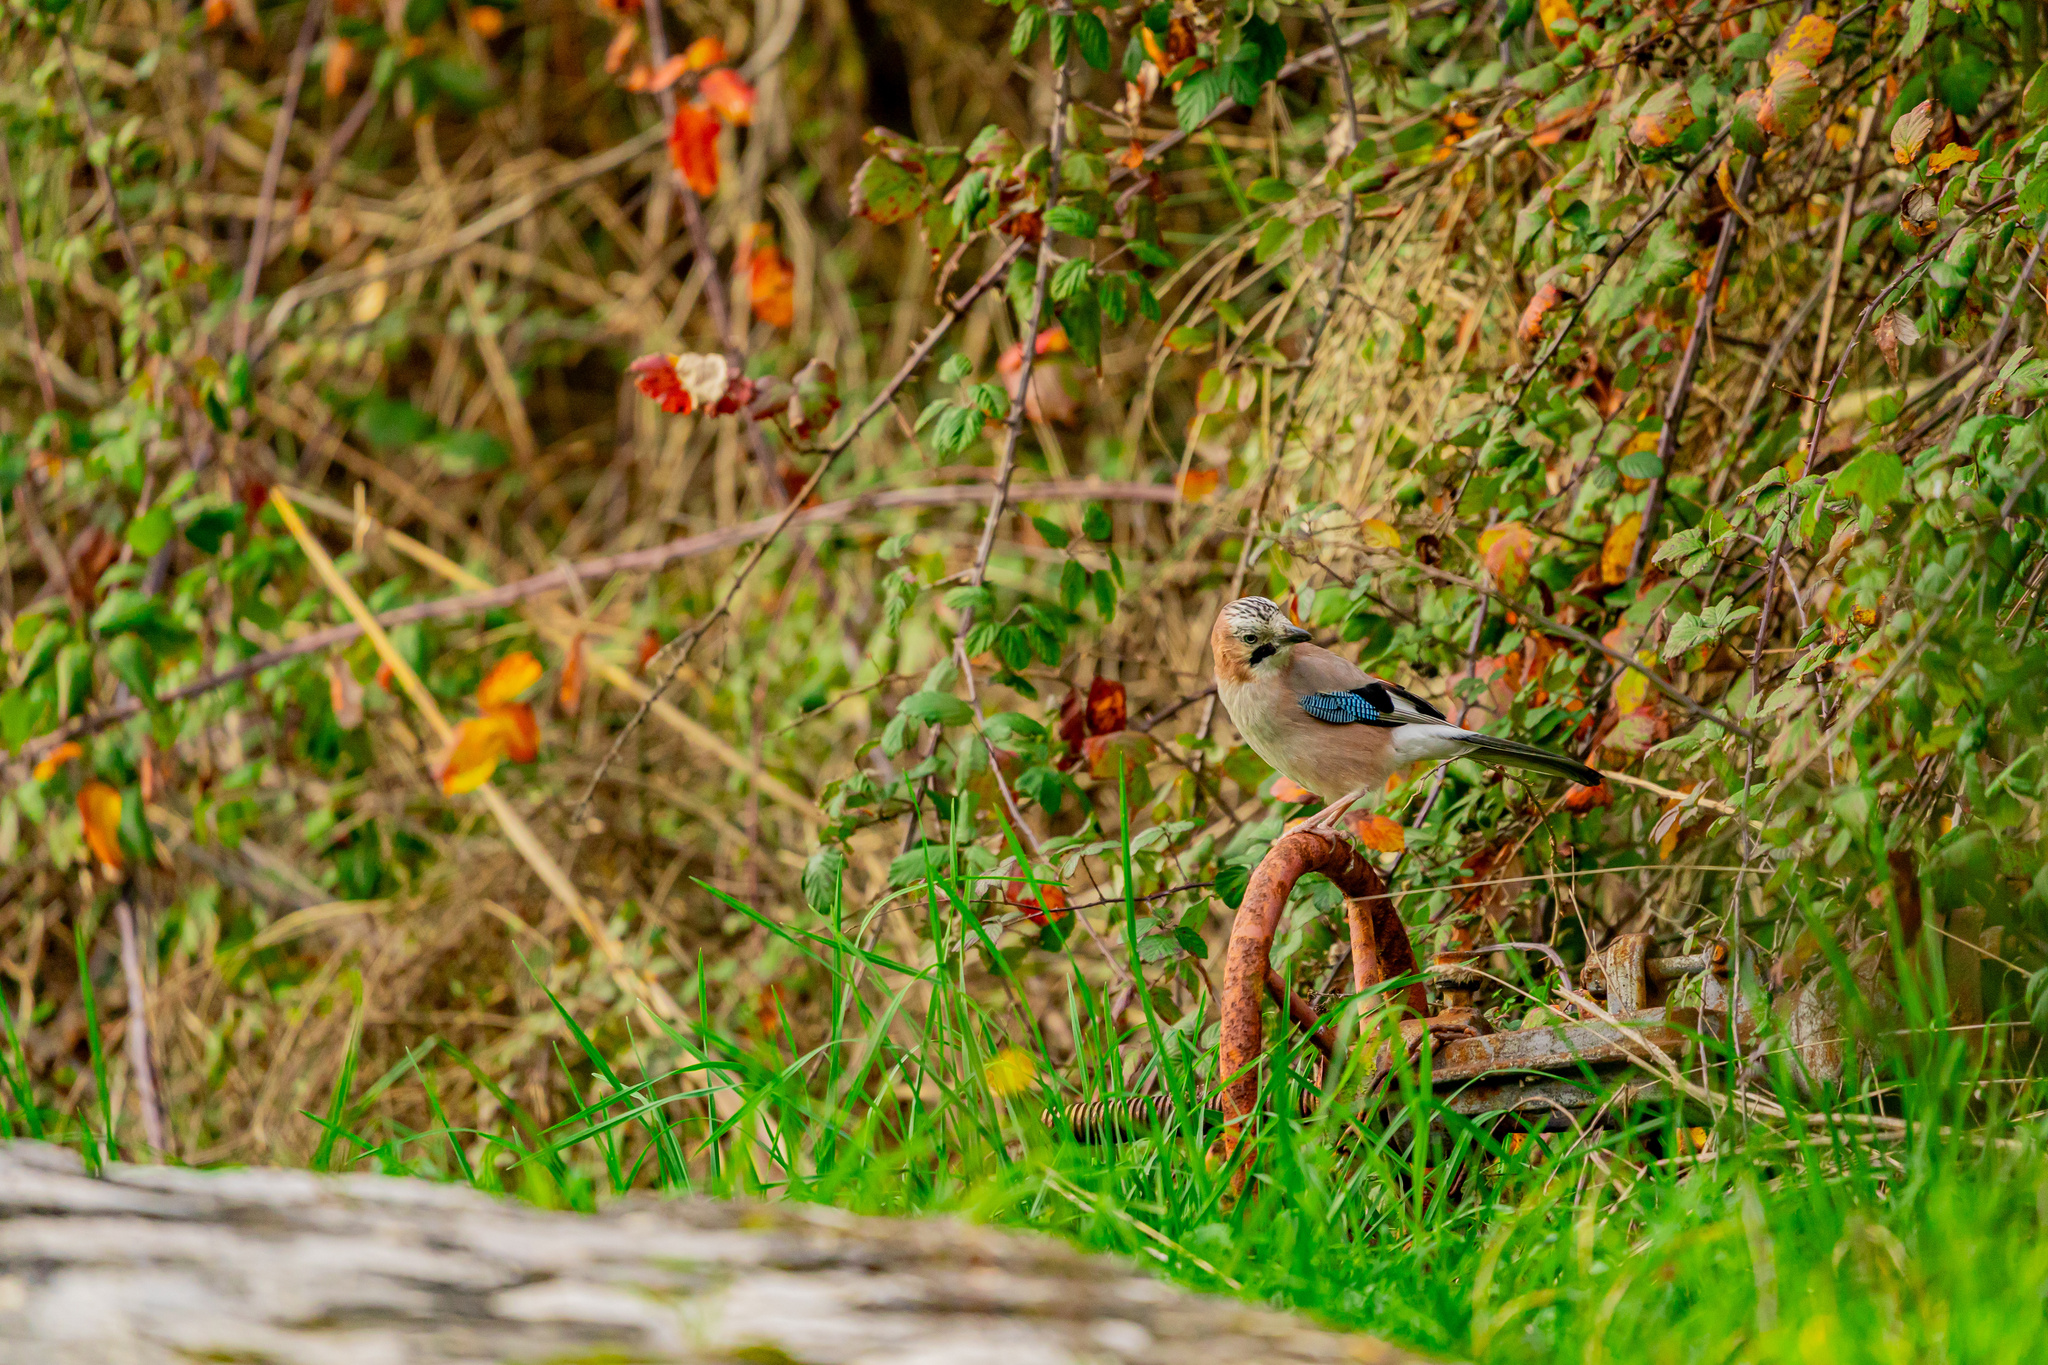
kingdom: Animalia
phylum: Chordata
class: Aves
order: Passeriformes
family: Corvidae
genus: Garrulus
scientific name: Garrulus glandarius
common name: Eurasian jay
